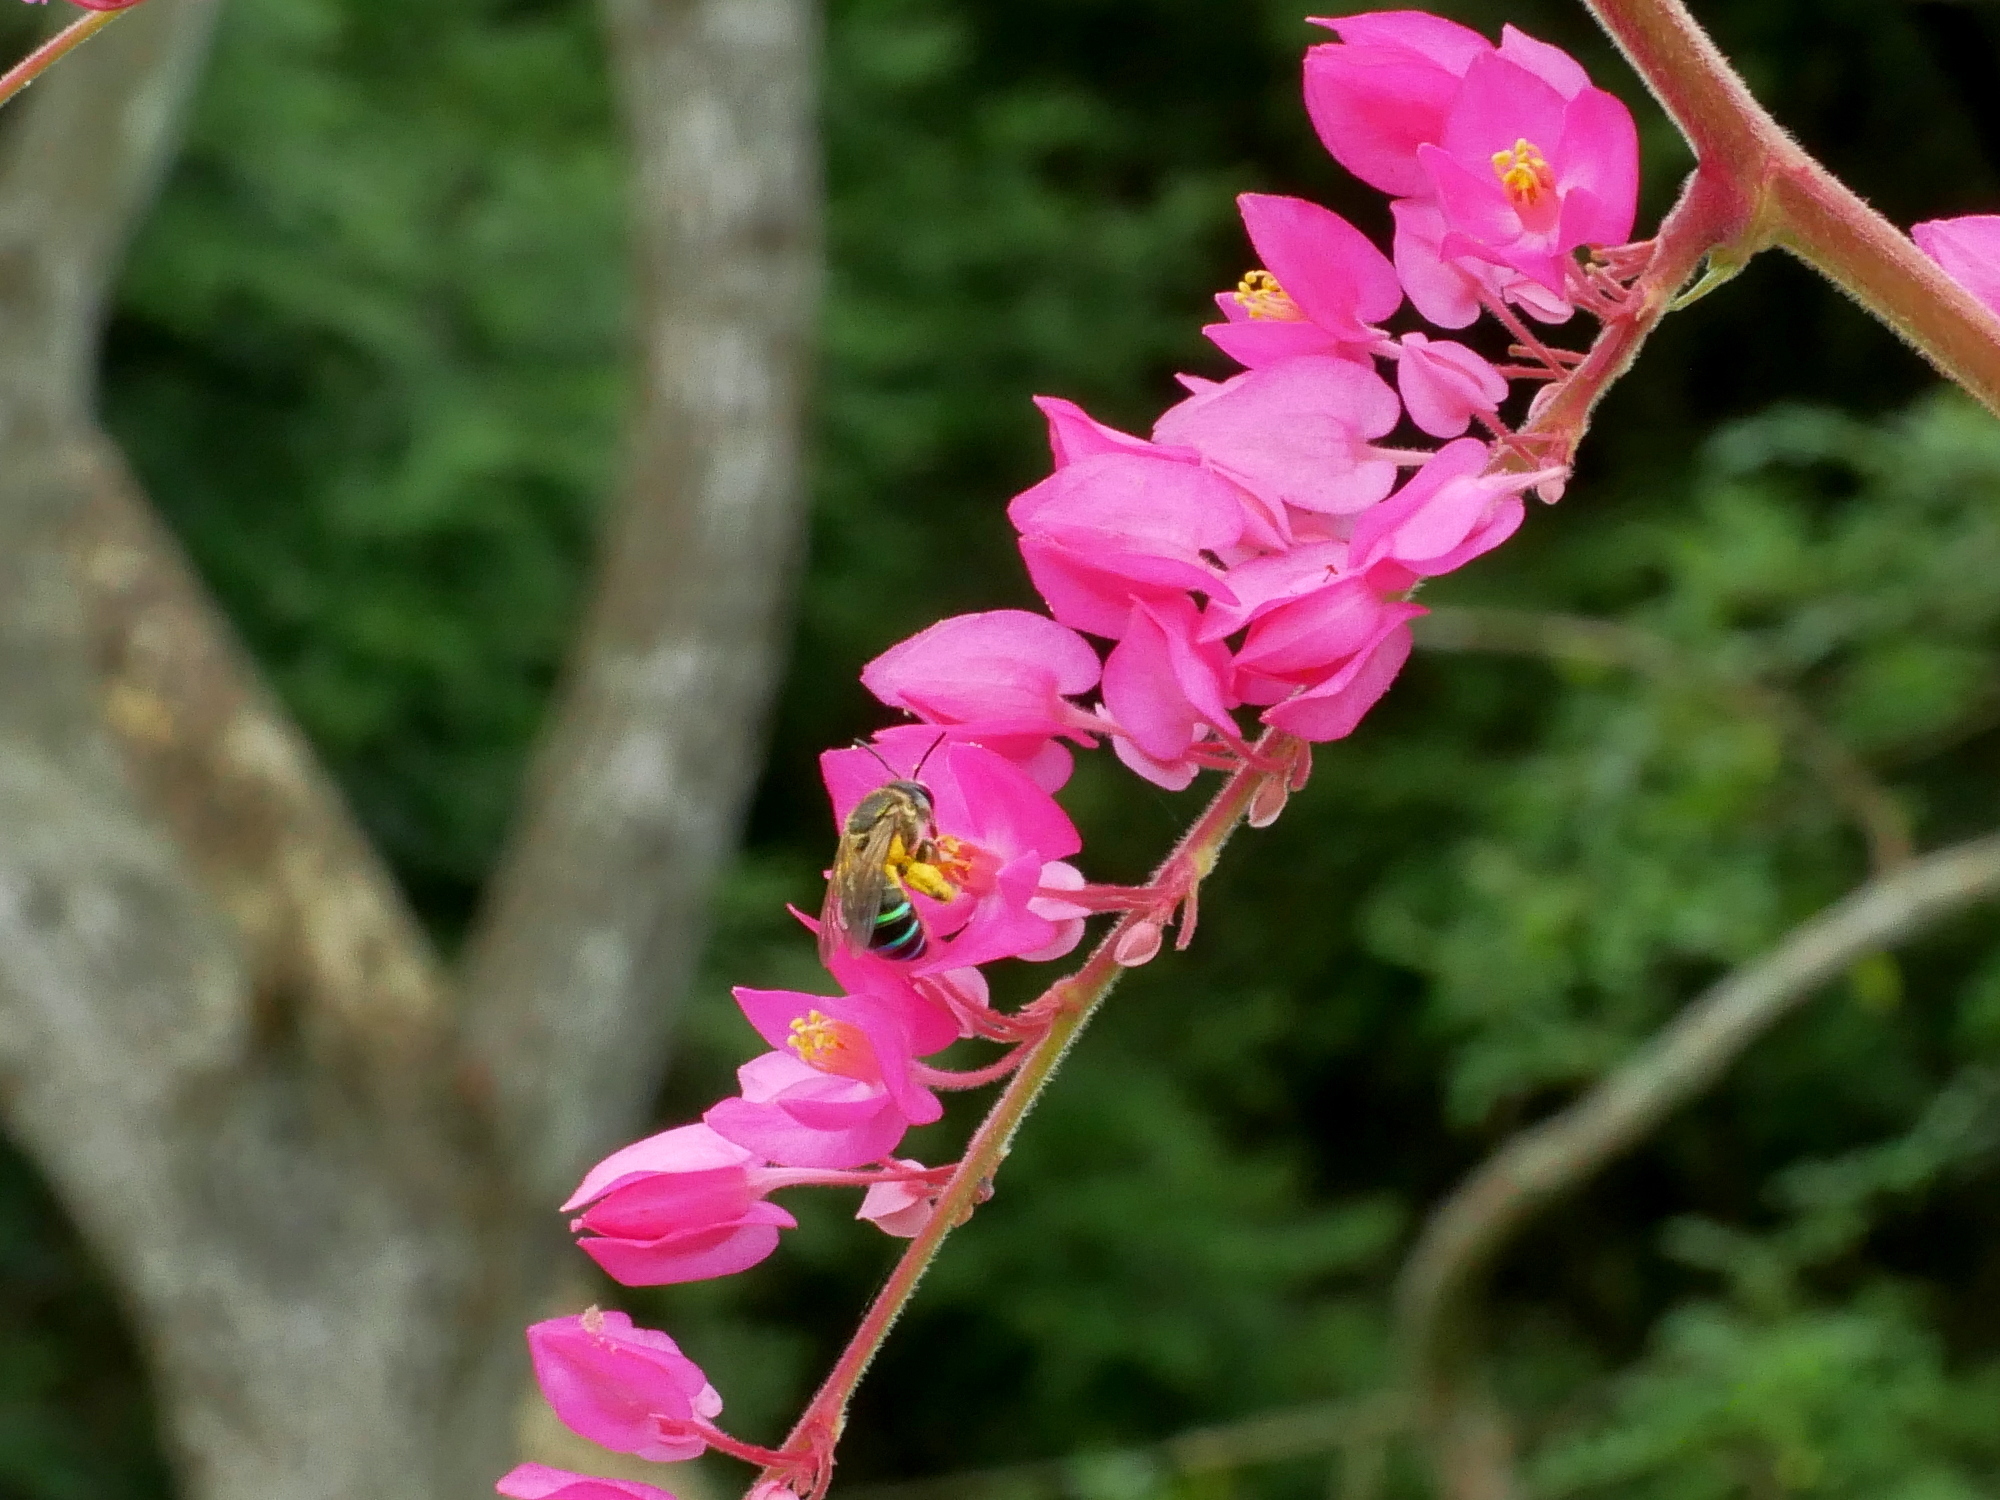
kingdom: Animalia
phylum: Arthropoda
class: Insecta
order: Hymenoptera
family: Halictidae
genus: Nomia
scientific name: Nomia chalybeata
